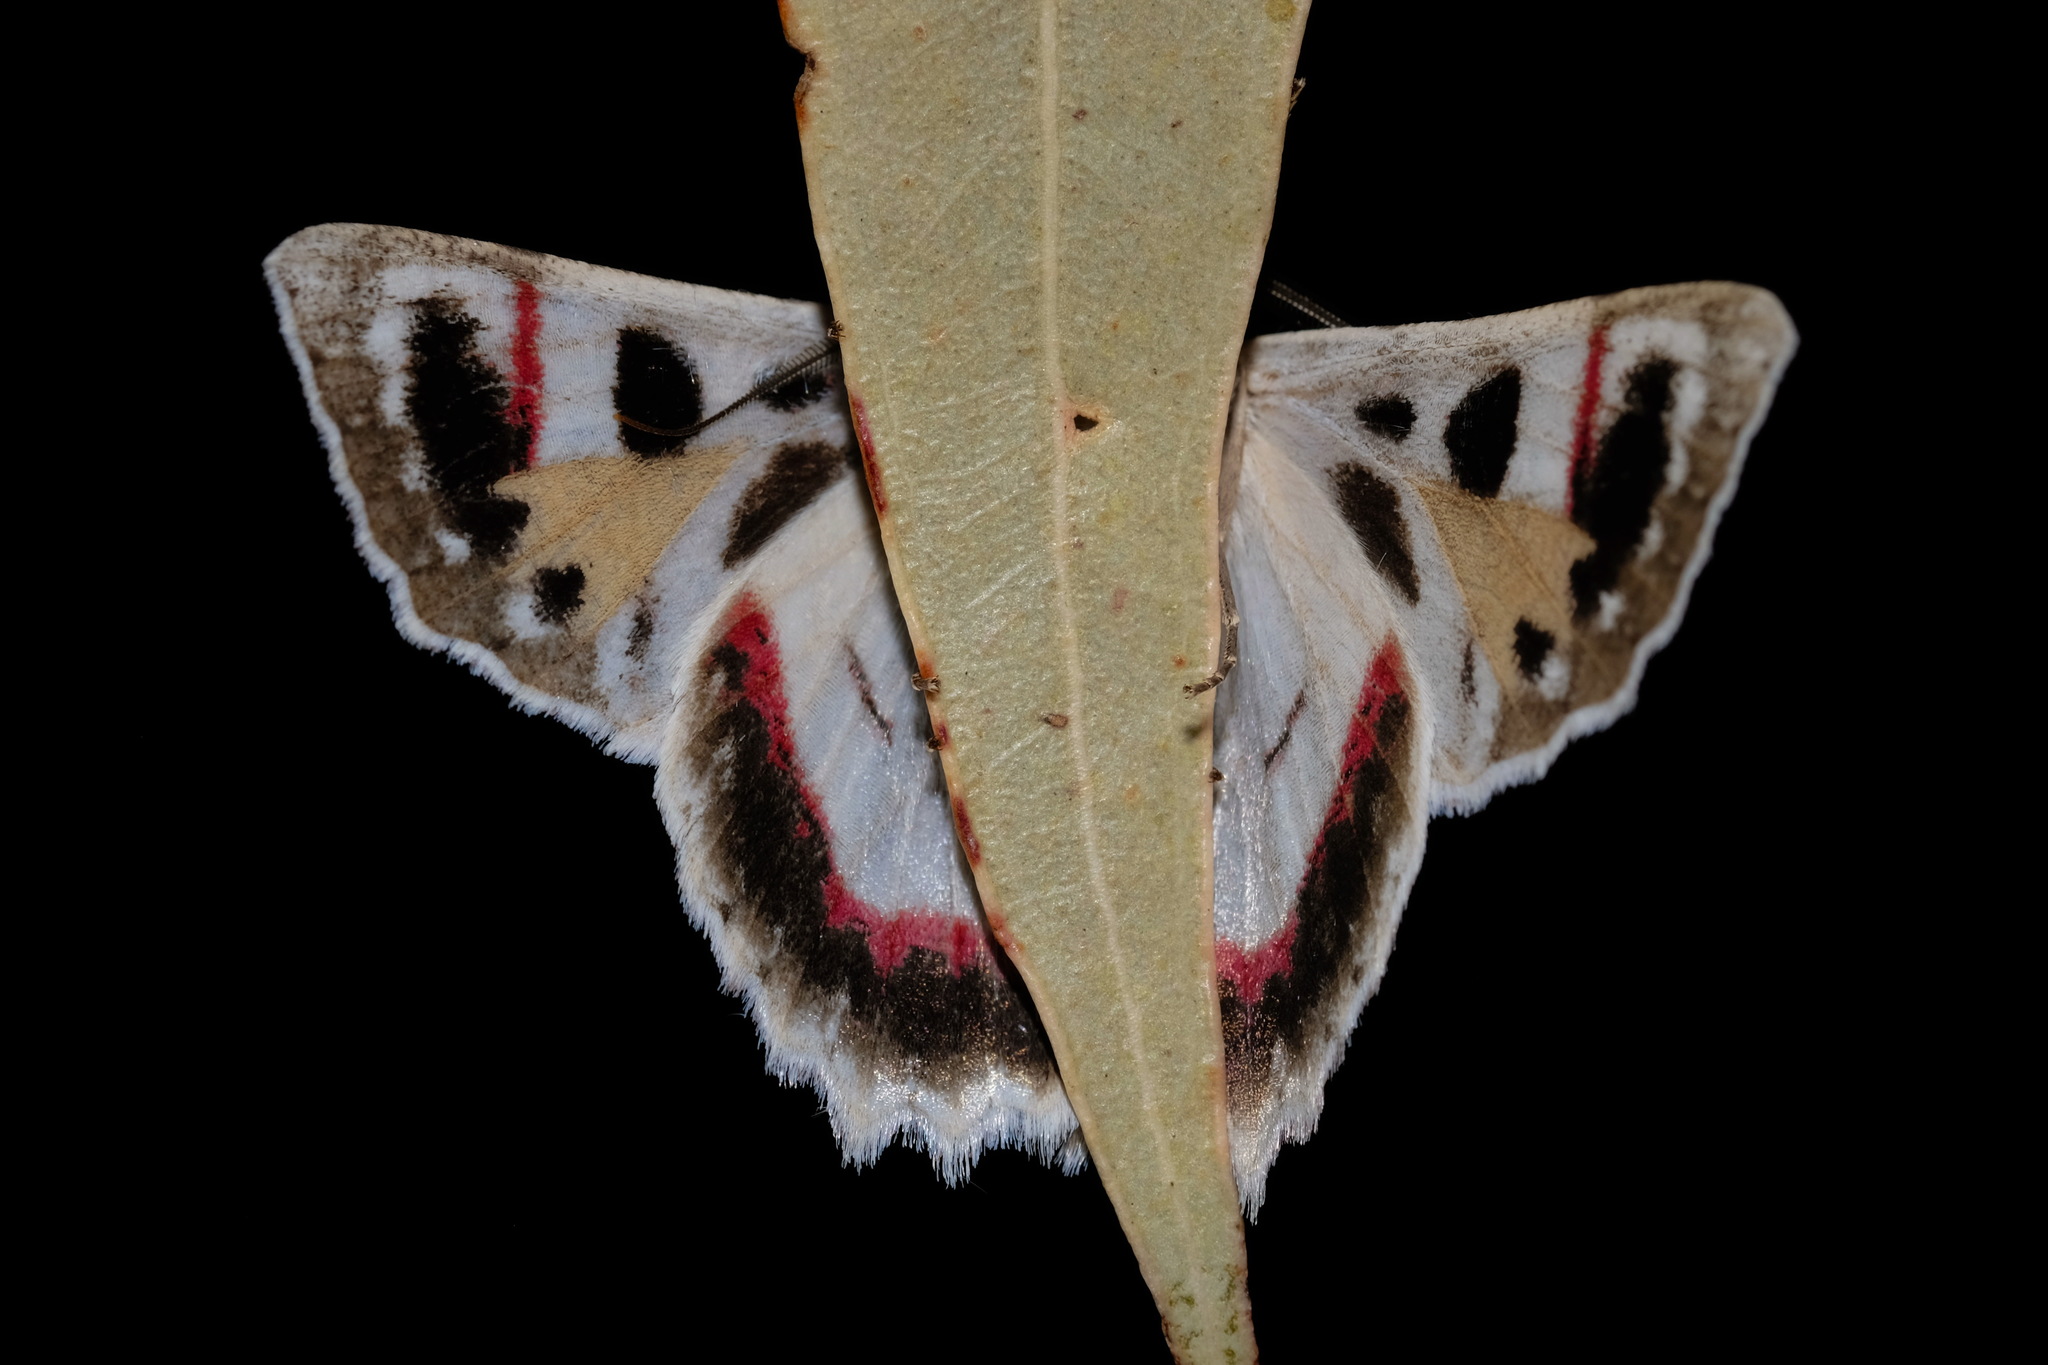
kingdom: Animalia
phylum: Arthropoda
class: Insecta
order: Lepidoptera
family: Geometridae
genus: Crypsiphona
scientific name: Crypsiphona ocultaria
